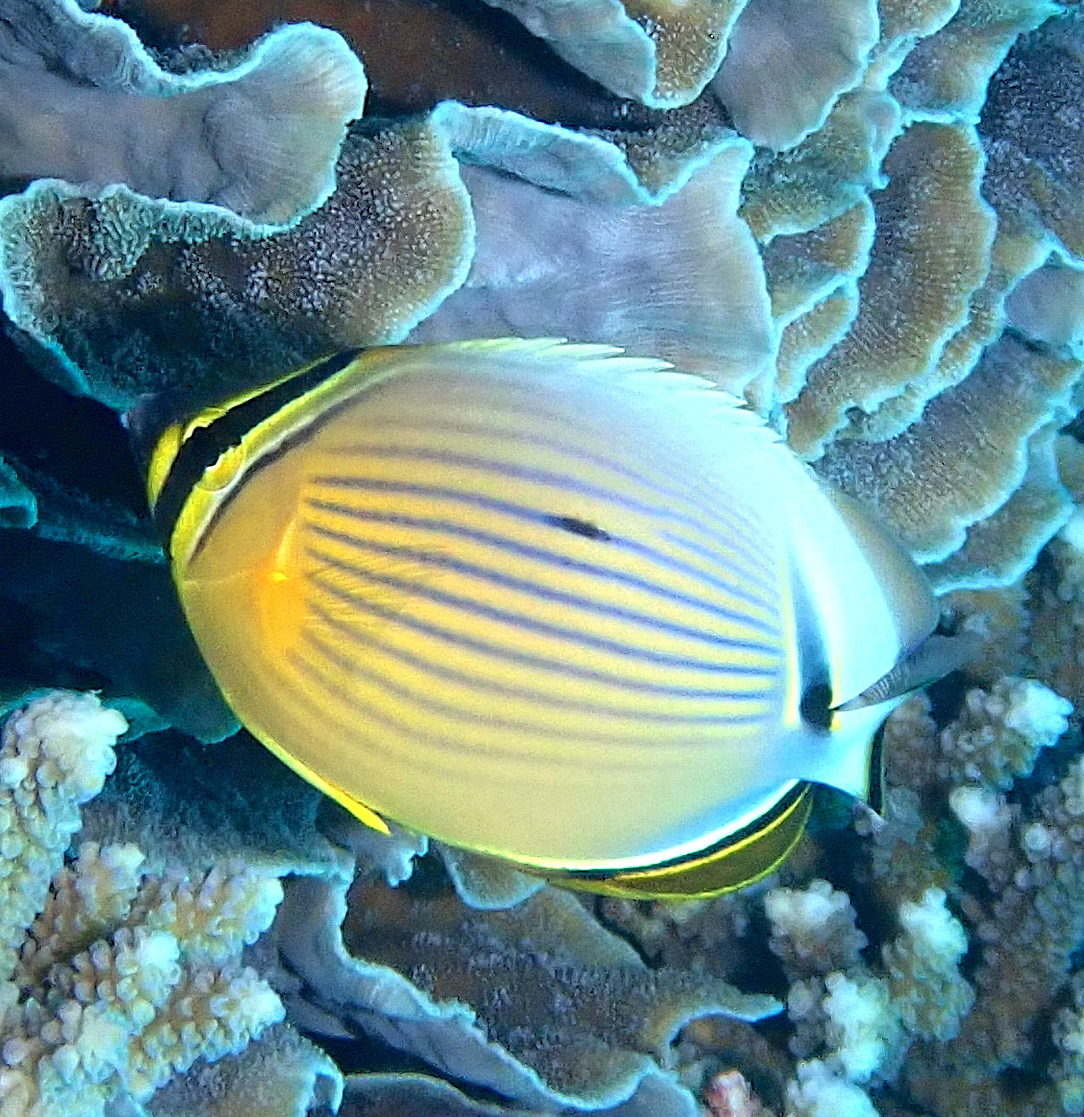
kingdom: Animalia
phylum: Chordata
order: Perciformes
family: Chaetodontidae
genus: Chaetodon
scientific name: Chaetodon lunulatus
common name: Redfin butterflyfish
